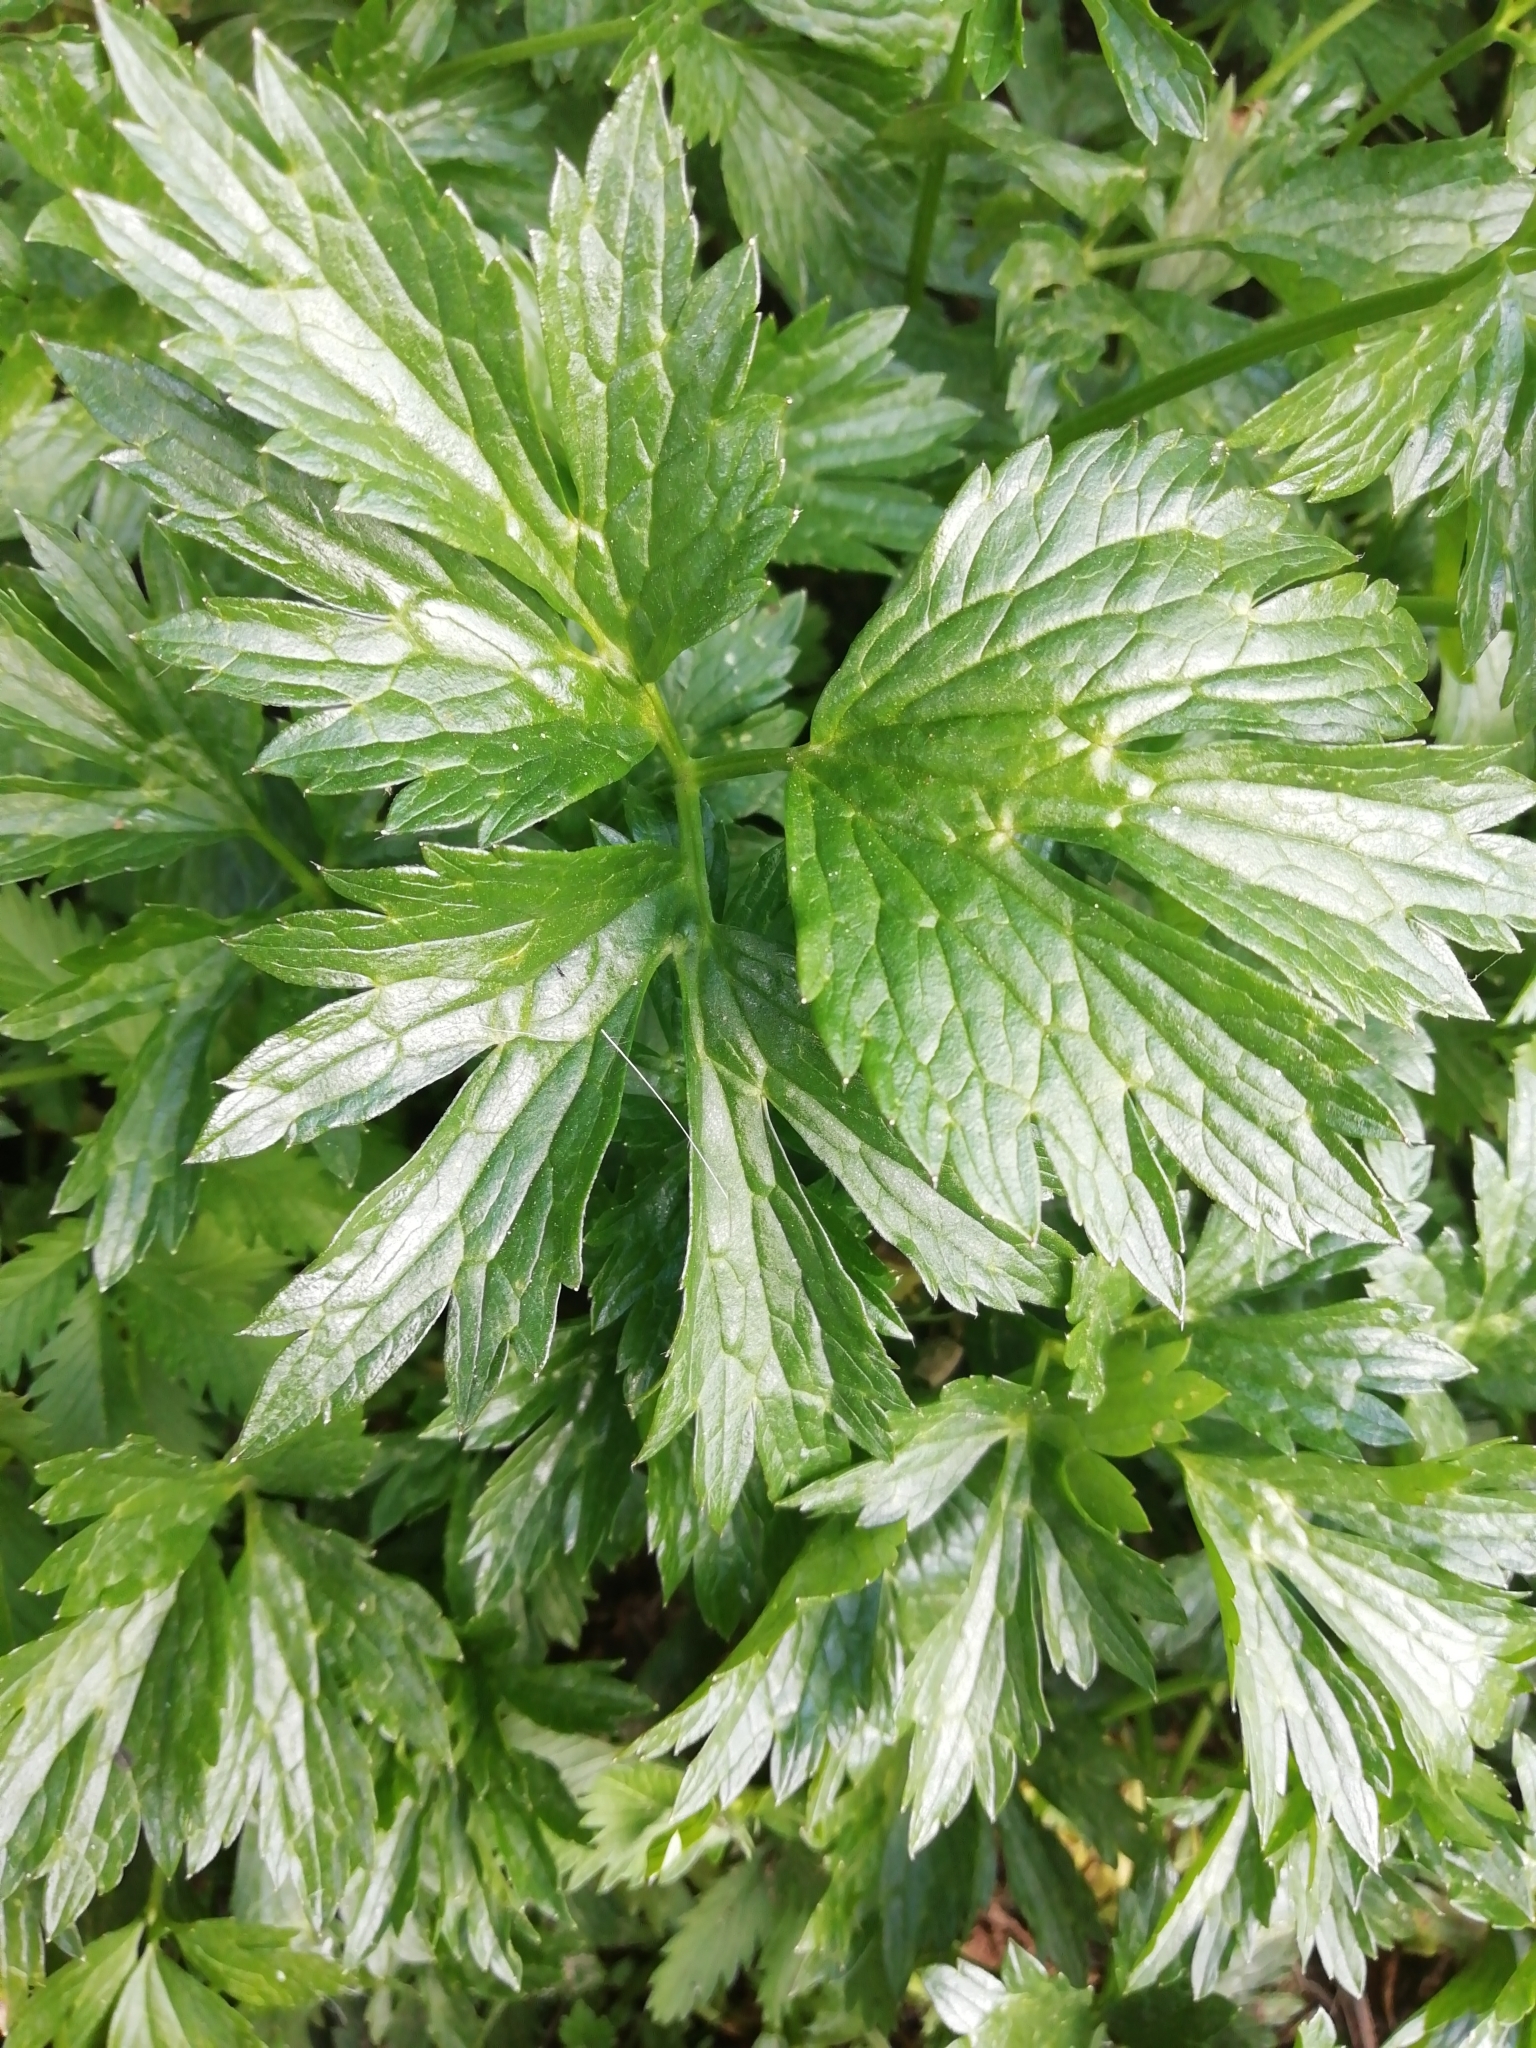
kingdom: Plantae
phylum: Tracheophyta
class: Magnoliopsida
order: Ranunculales
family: Ranunculaceae
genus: Ranunculus
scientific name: Ranunculus repens
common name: Creeping buttercup
